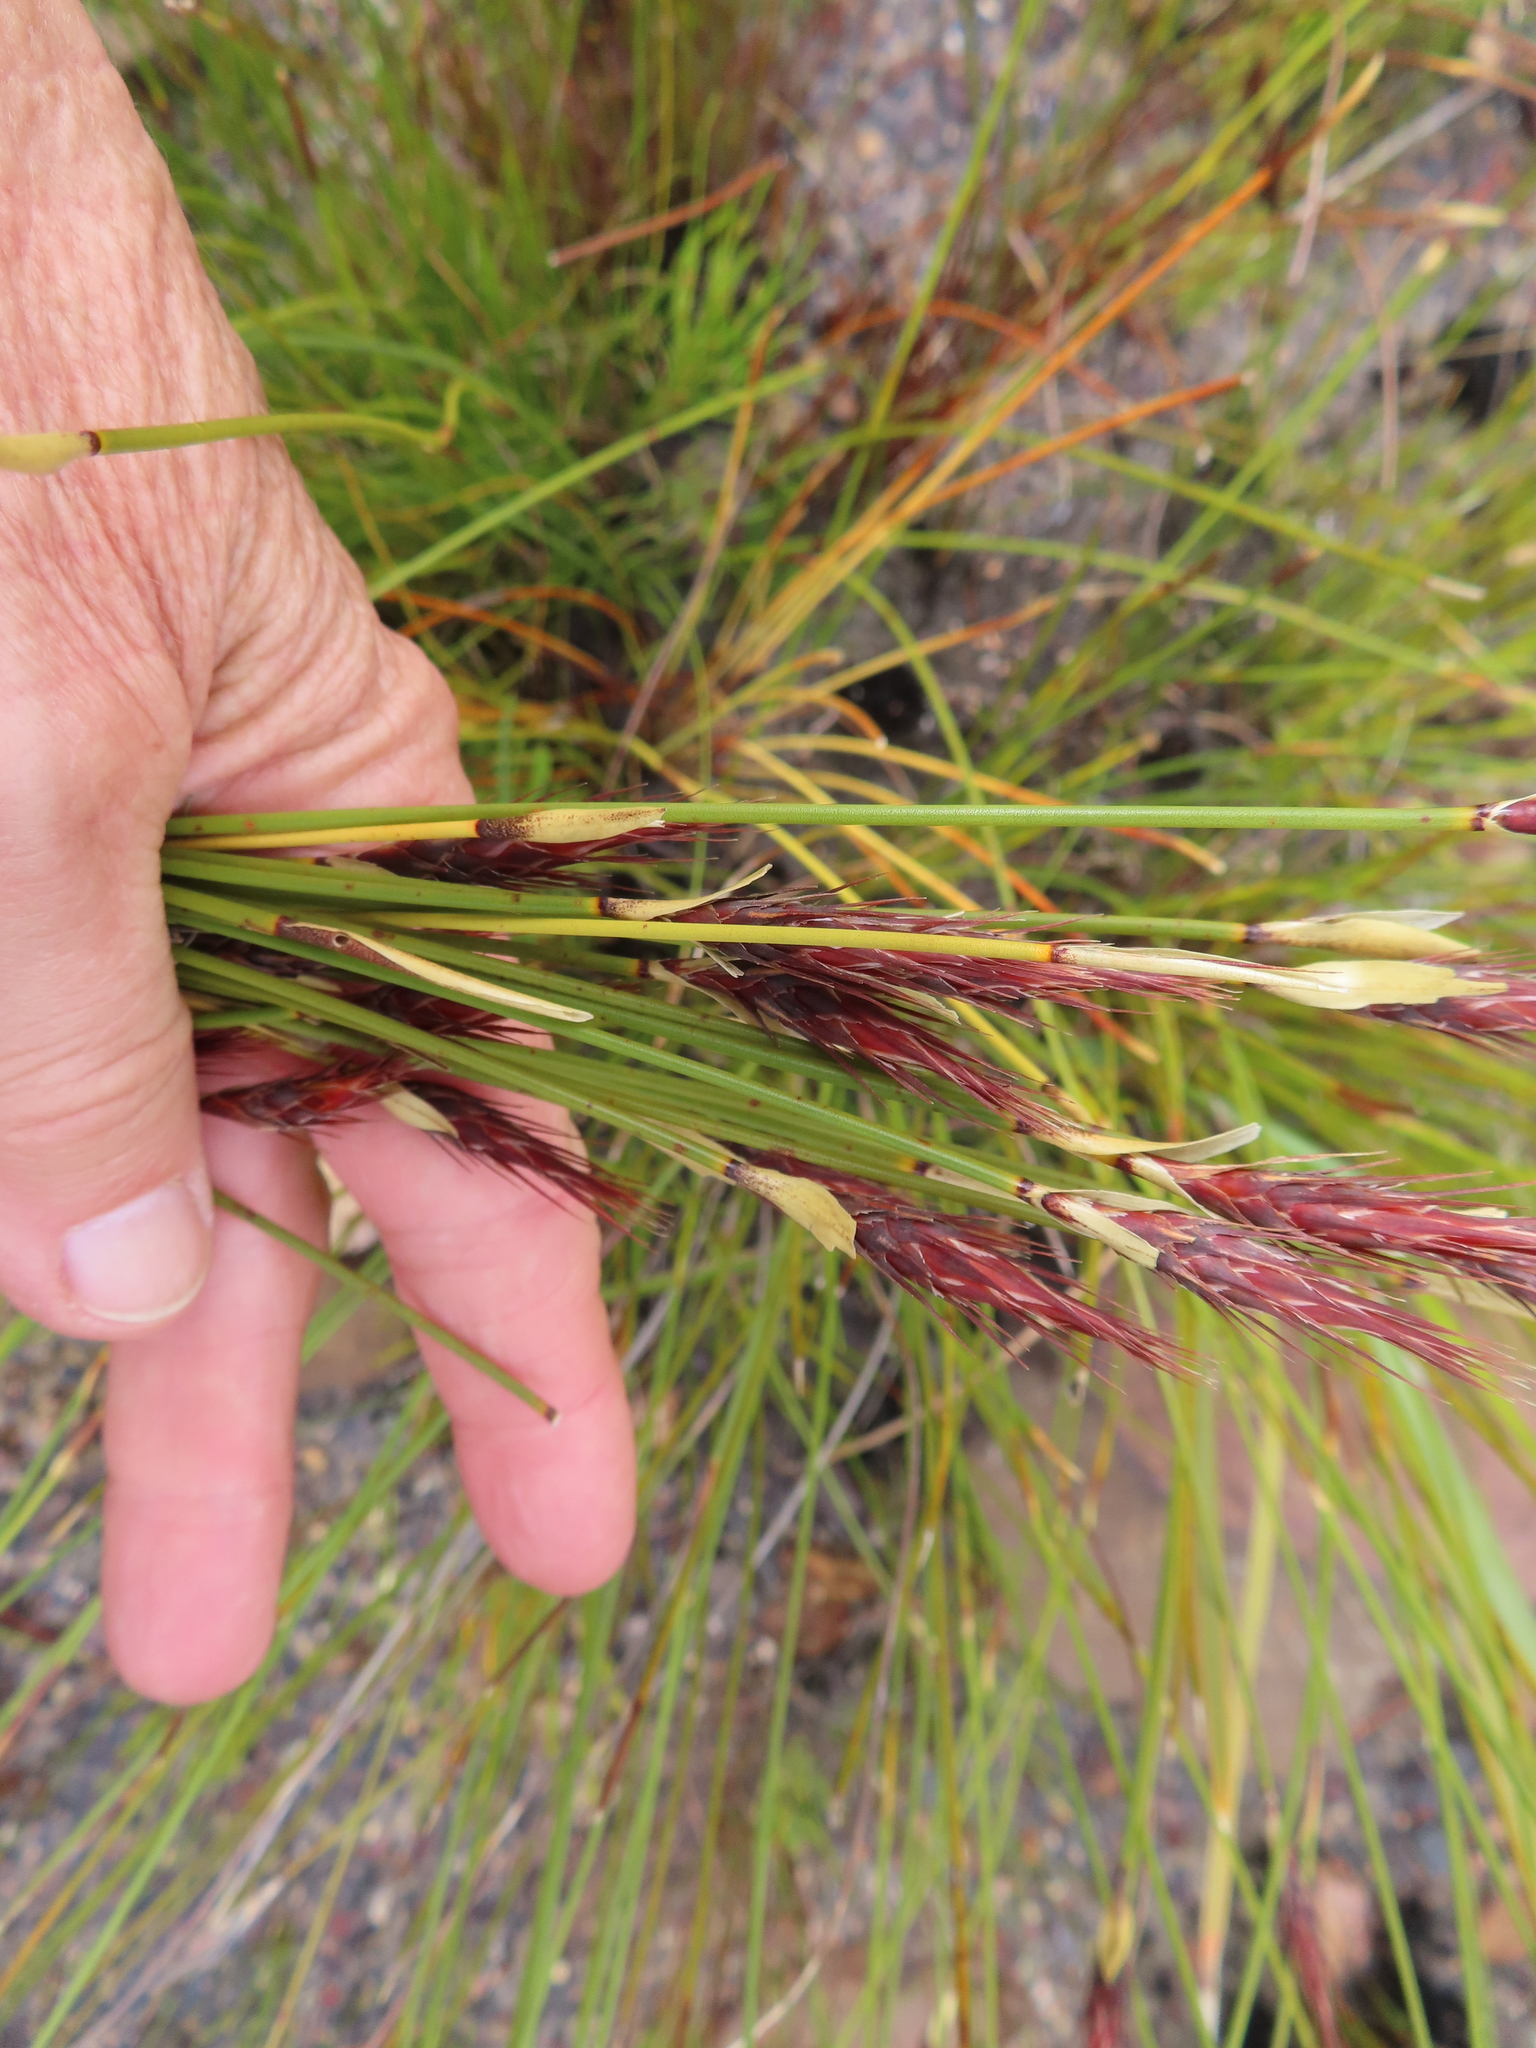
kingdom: Plantae
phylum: Tracheophyta
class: Liliopsida
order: Poales
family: Restionaceae
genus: Hypodiscus
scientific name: Hypodiscus aristatus
